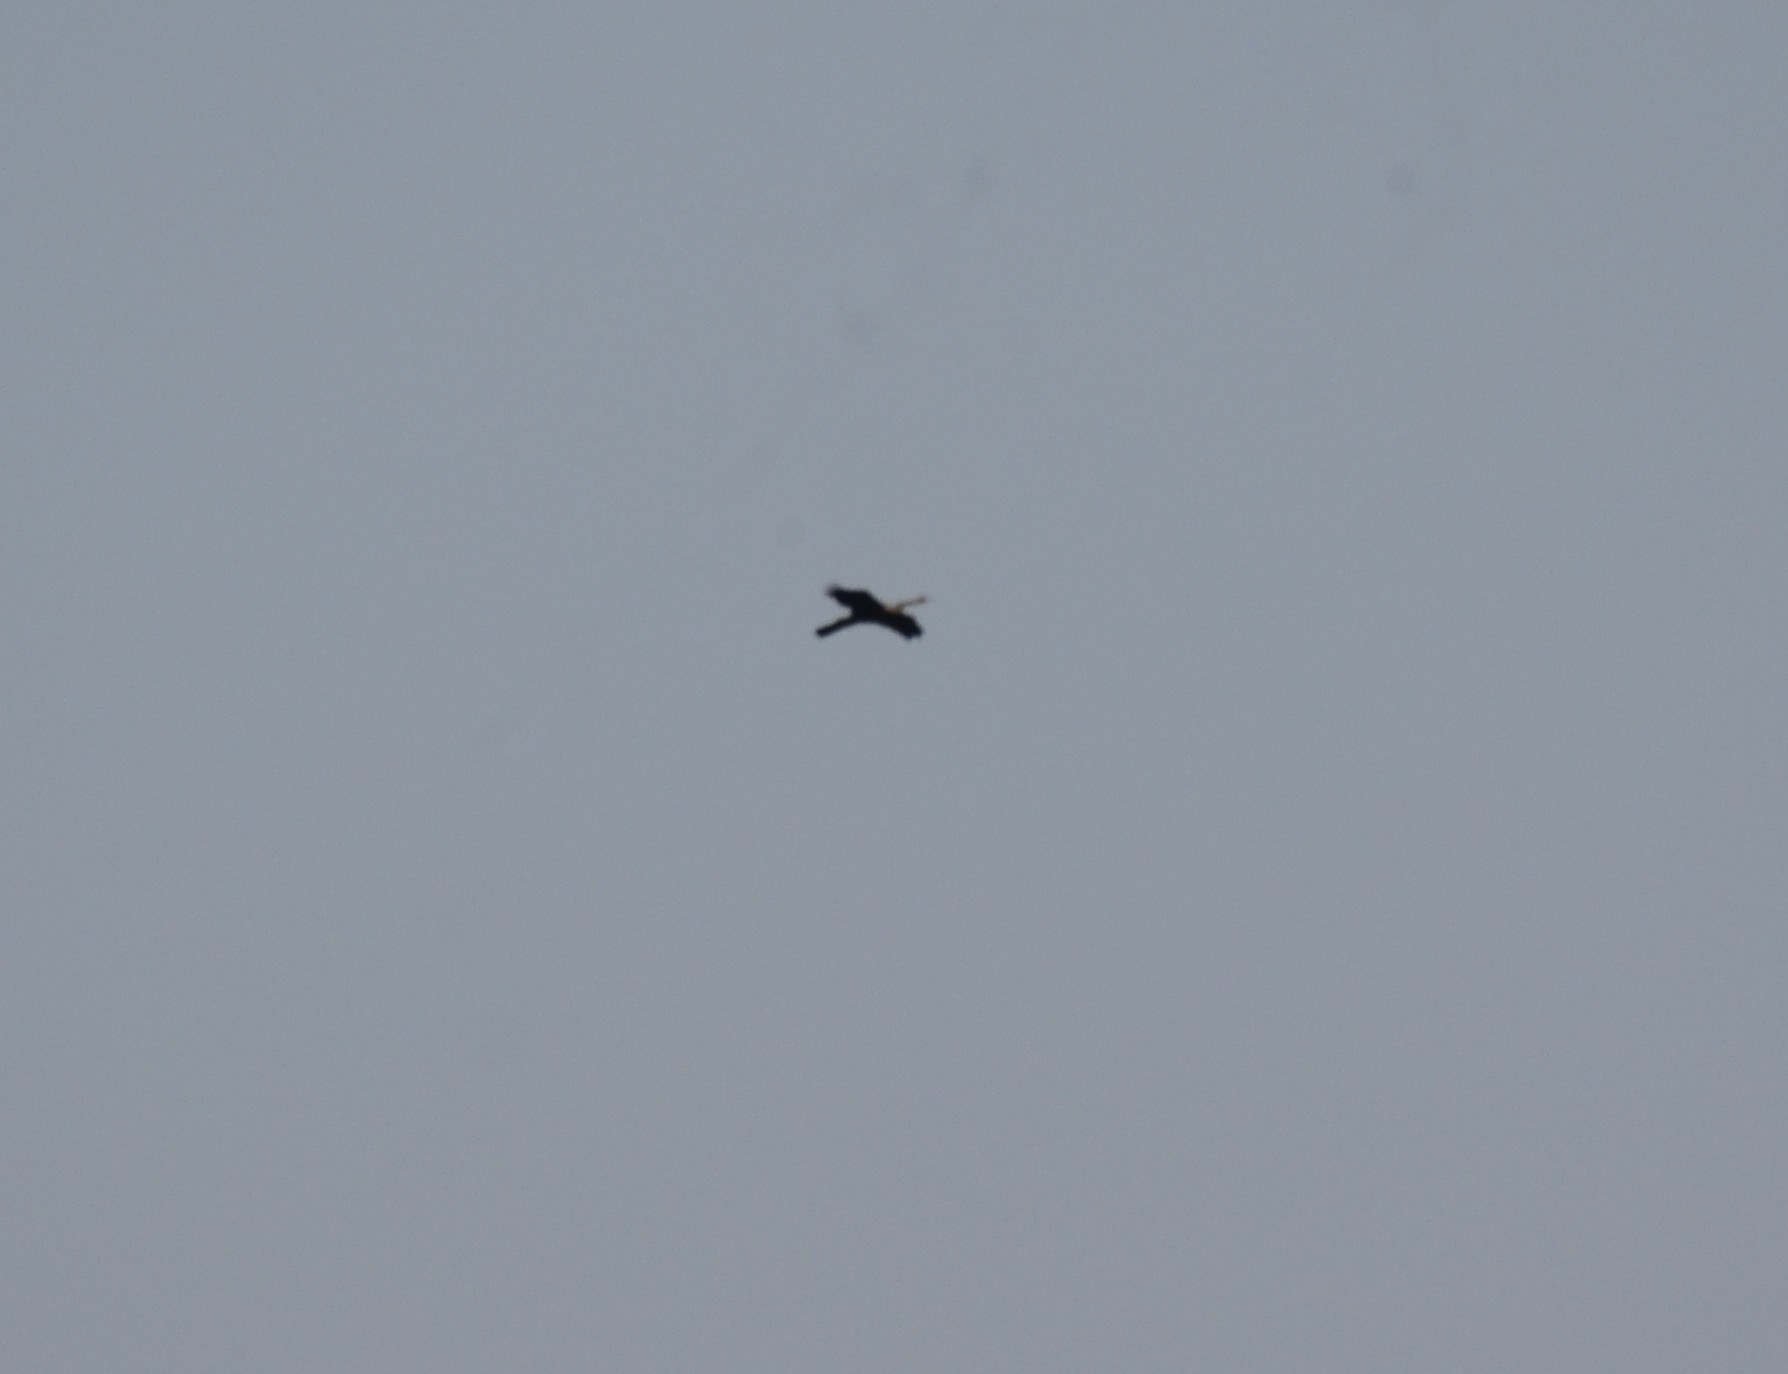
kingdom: Animalia
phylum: Chordata
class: Aves
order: Suliformes
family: Anhingidae
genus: Anhinga
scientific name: Anhinga melanogaster
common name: Oriental darter
